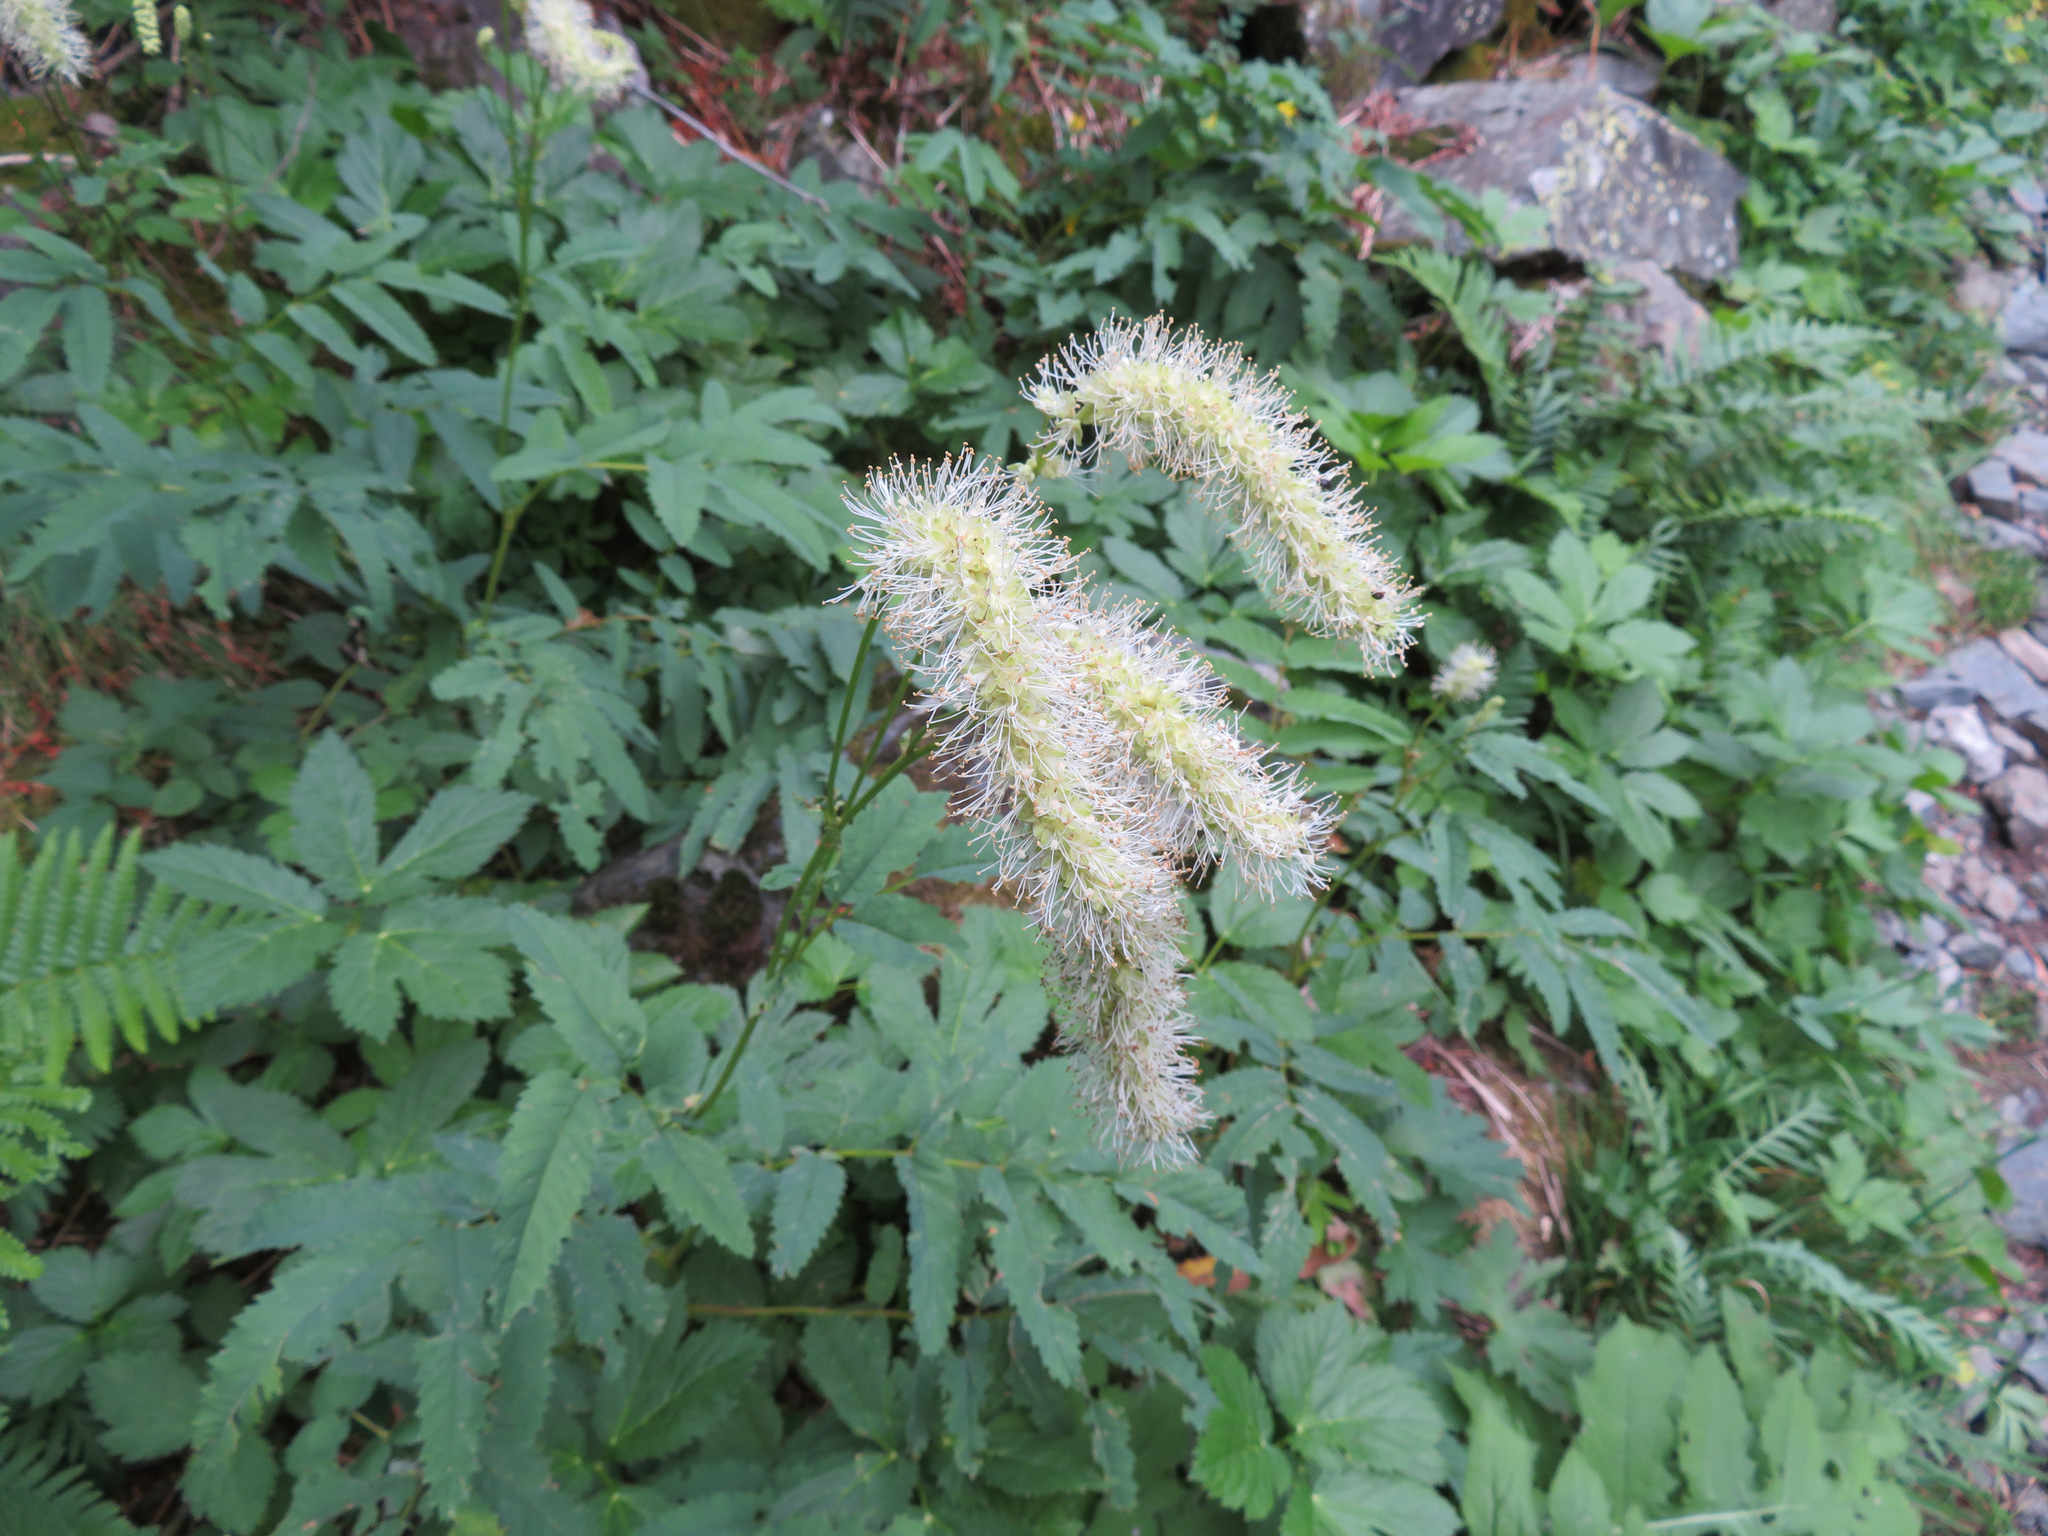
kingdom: Plantae
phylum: Tracheophyta
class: Magnoliopsida
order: Rosales
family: Rosaceae
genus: Poterium
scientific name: Poterium dodecandrum
